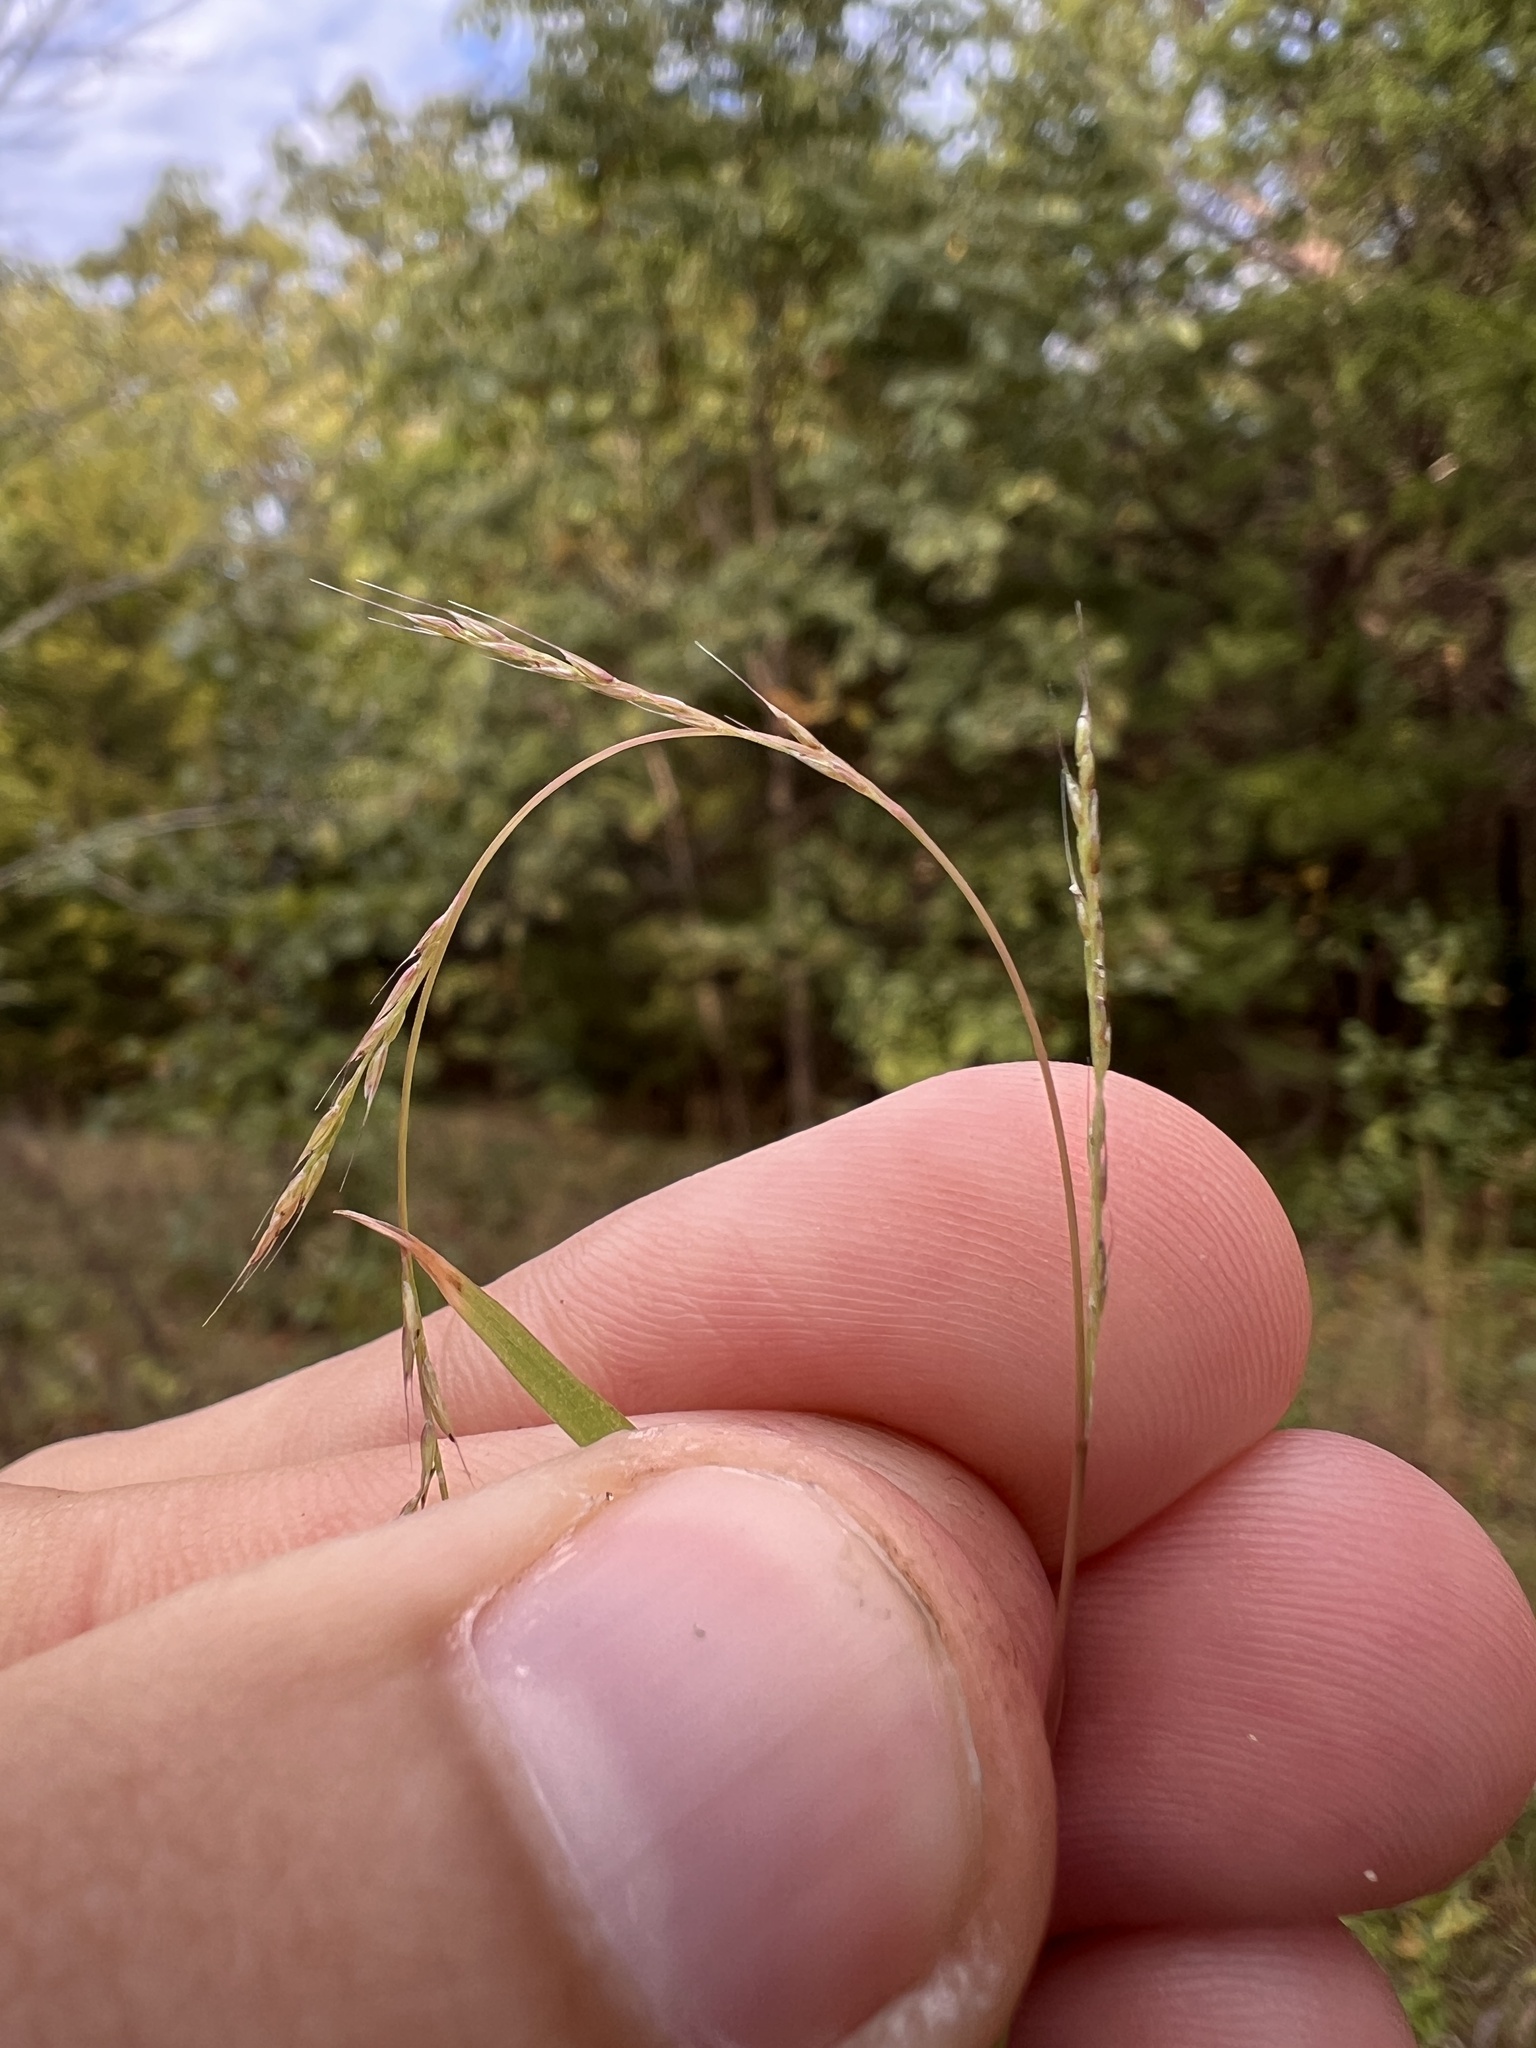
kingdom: Plantae
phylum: Tracheophyta
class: Liliopsida
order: Poales
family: Poaceae
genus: Muhlenbergia
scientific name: Muhlenbergia schreberi
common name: Nimblewill
